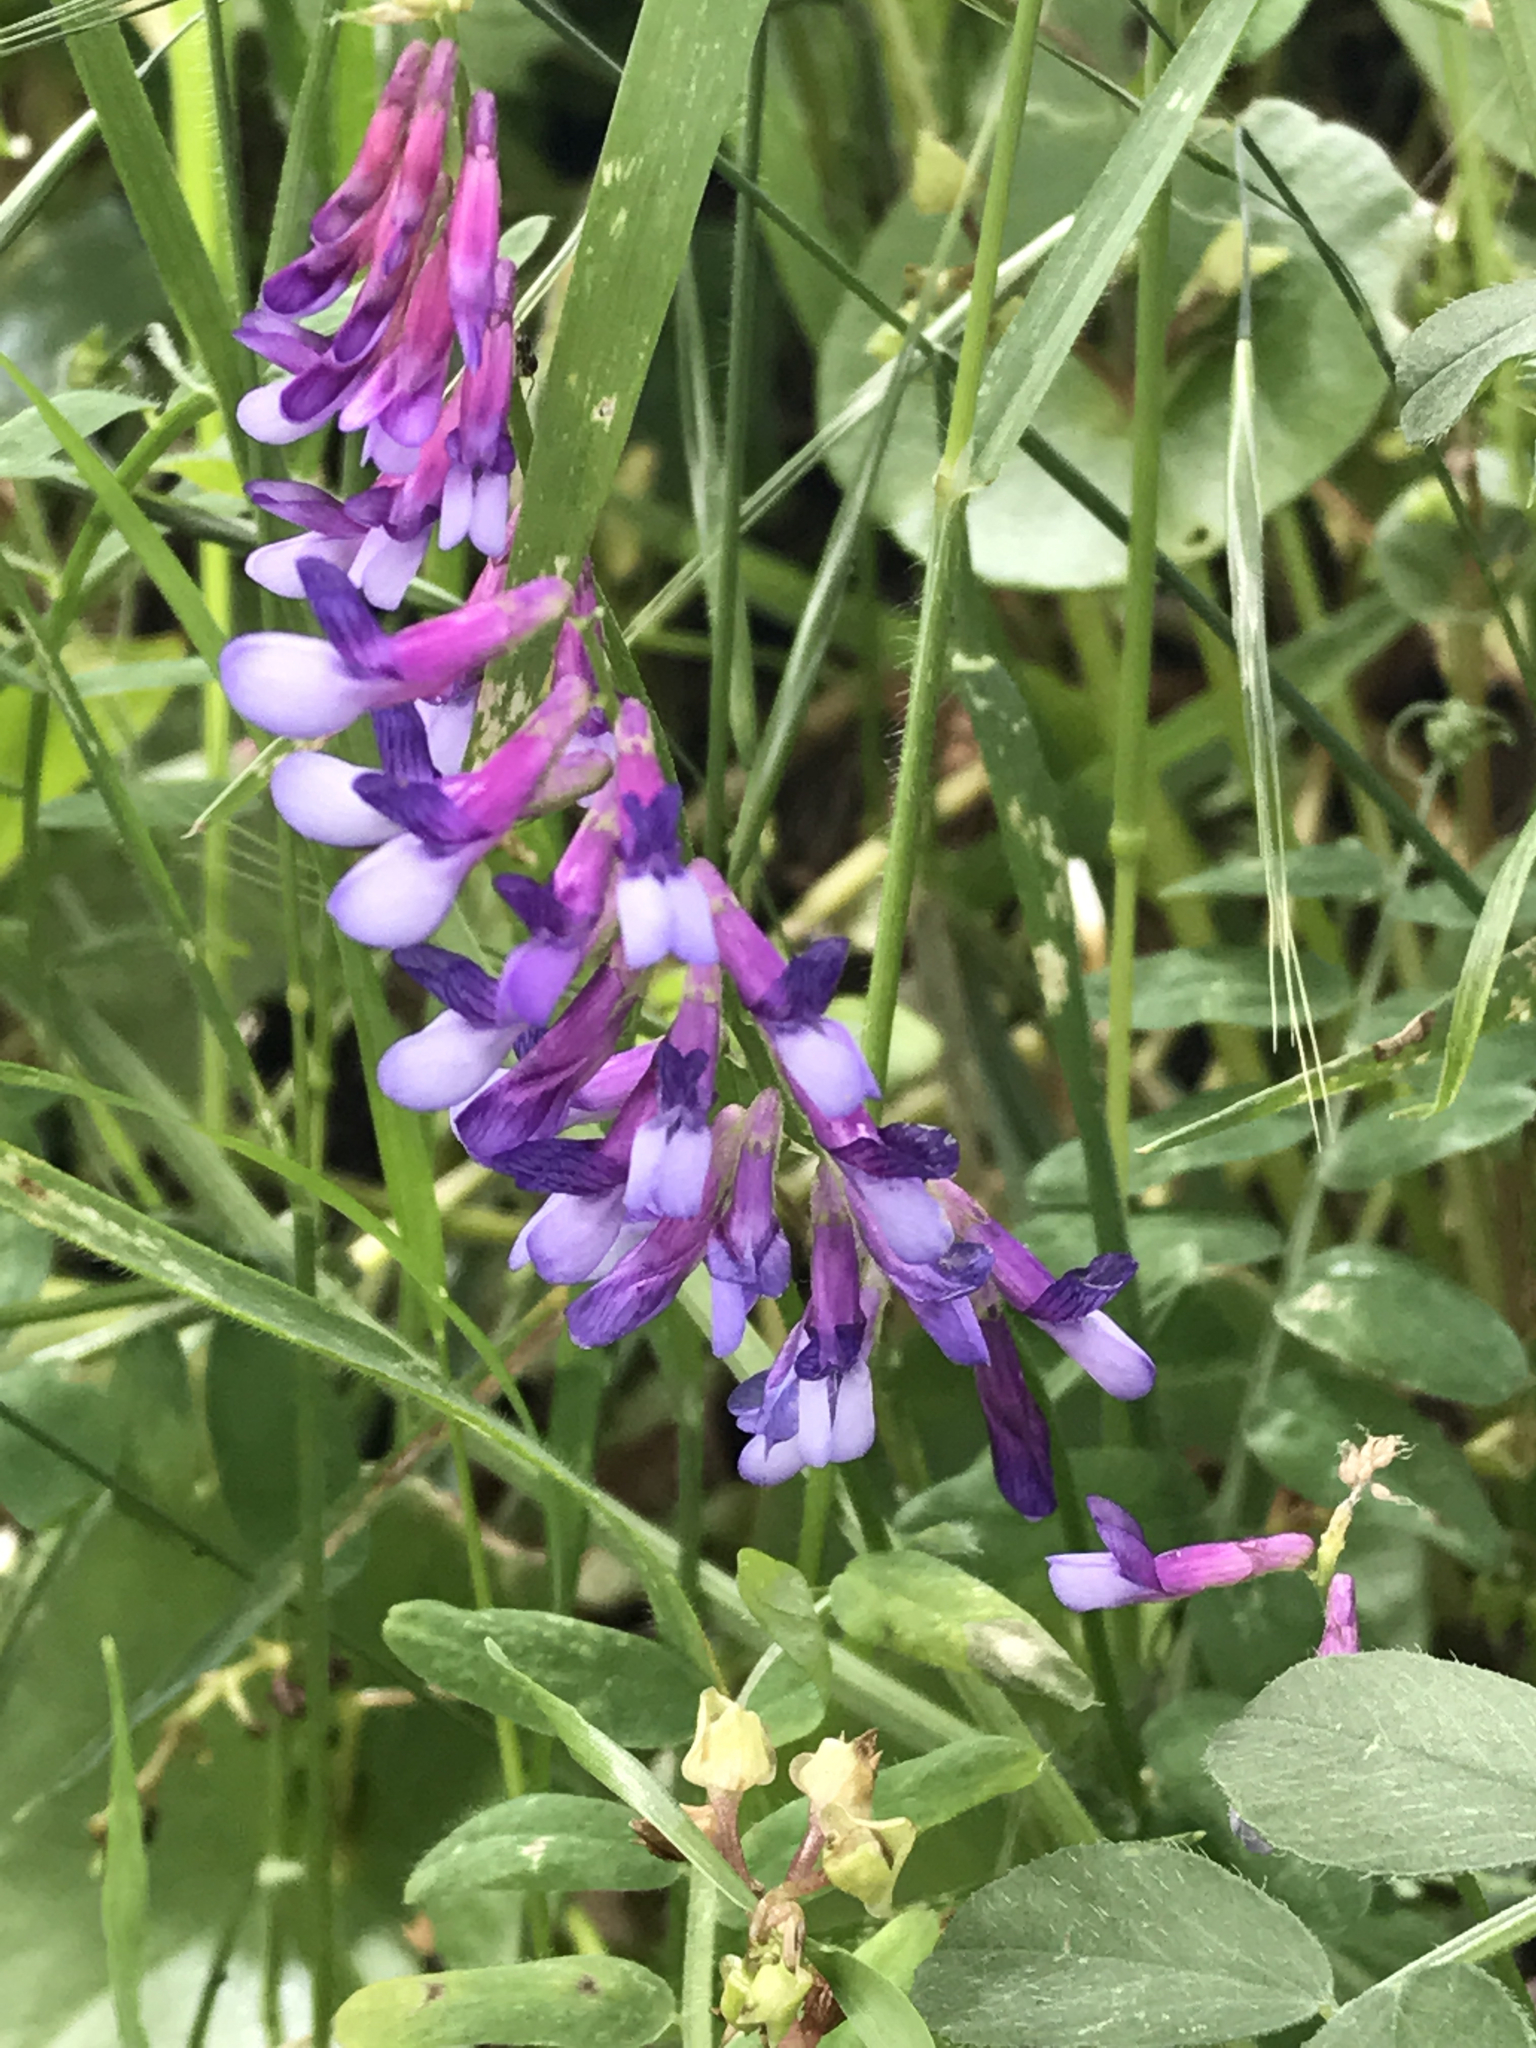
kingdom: Plantae
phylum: Tracheophyta
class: Magnoliopsida
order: Fabales
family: Fabaceae
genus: Vicia
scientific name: Vicia villosa
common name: Fodder vetch
